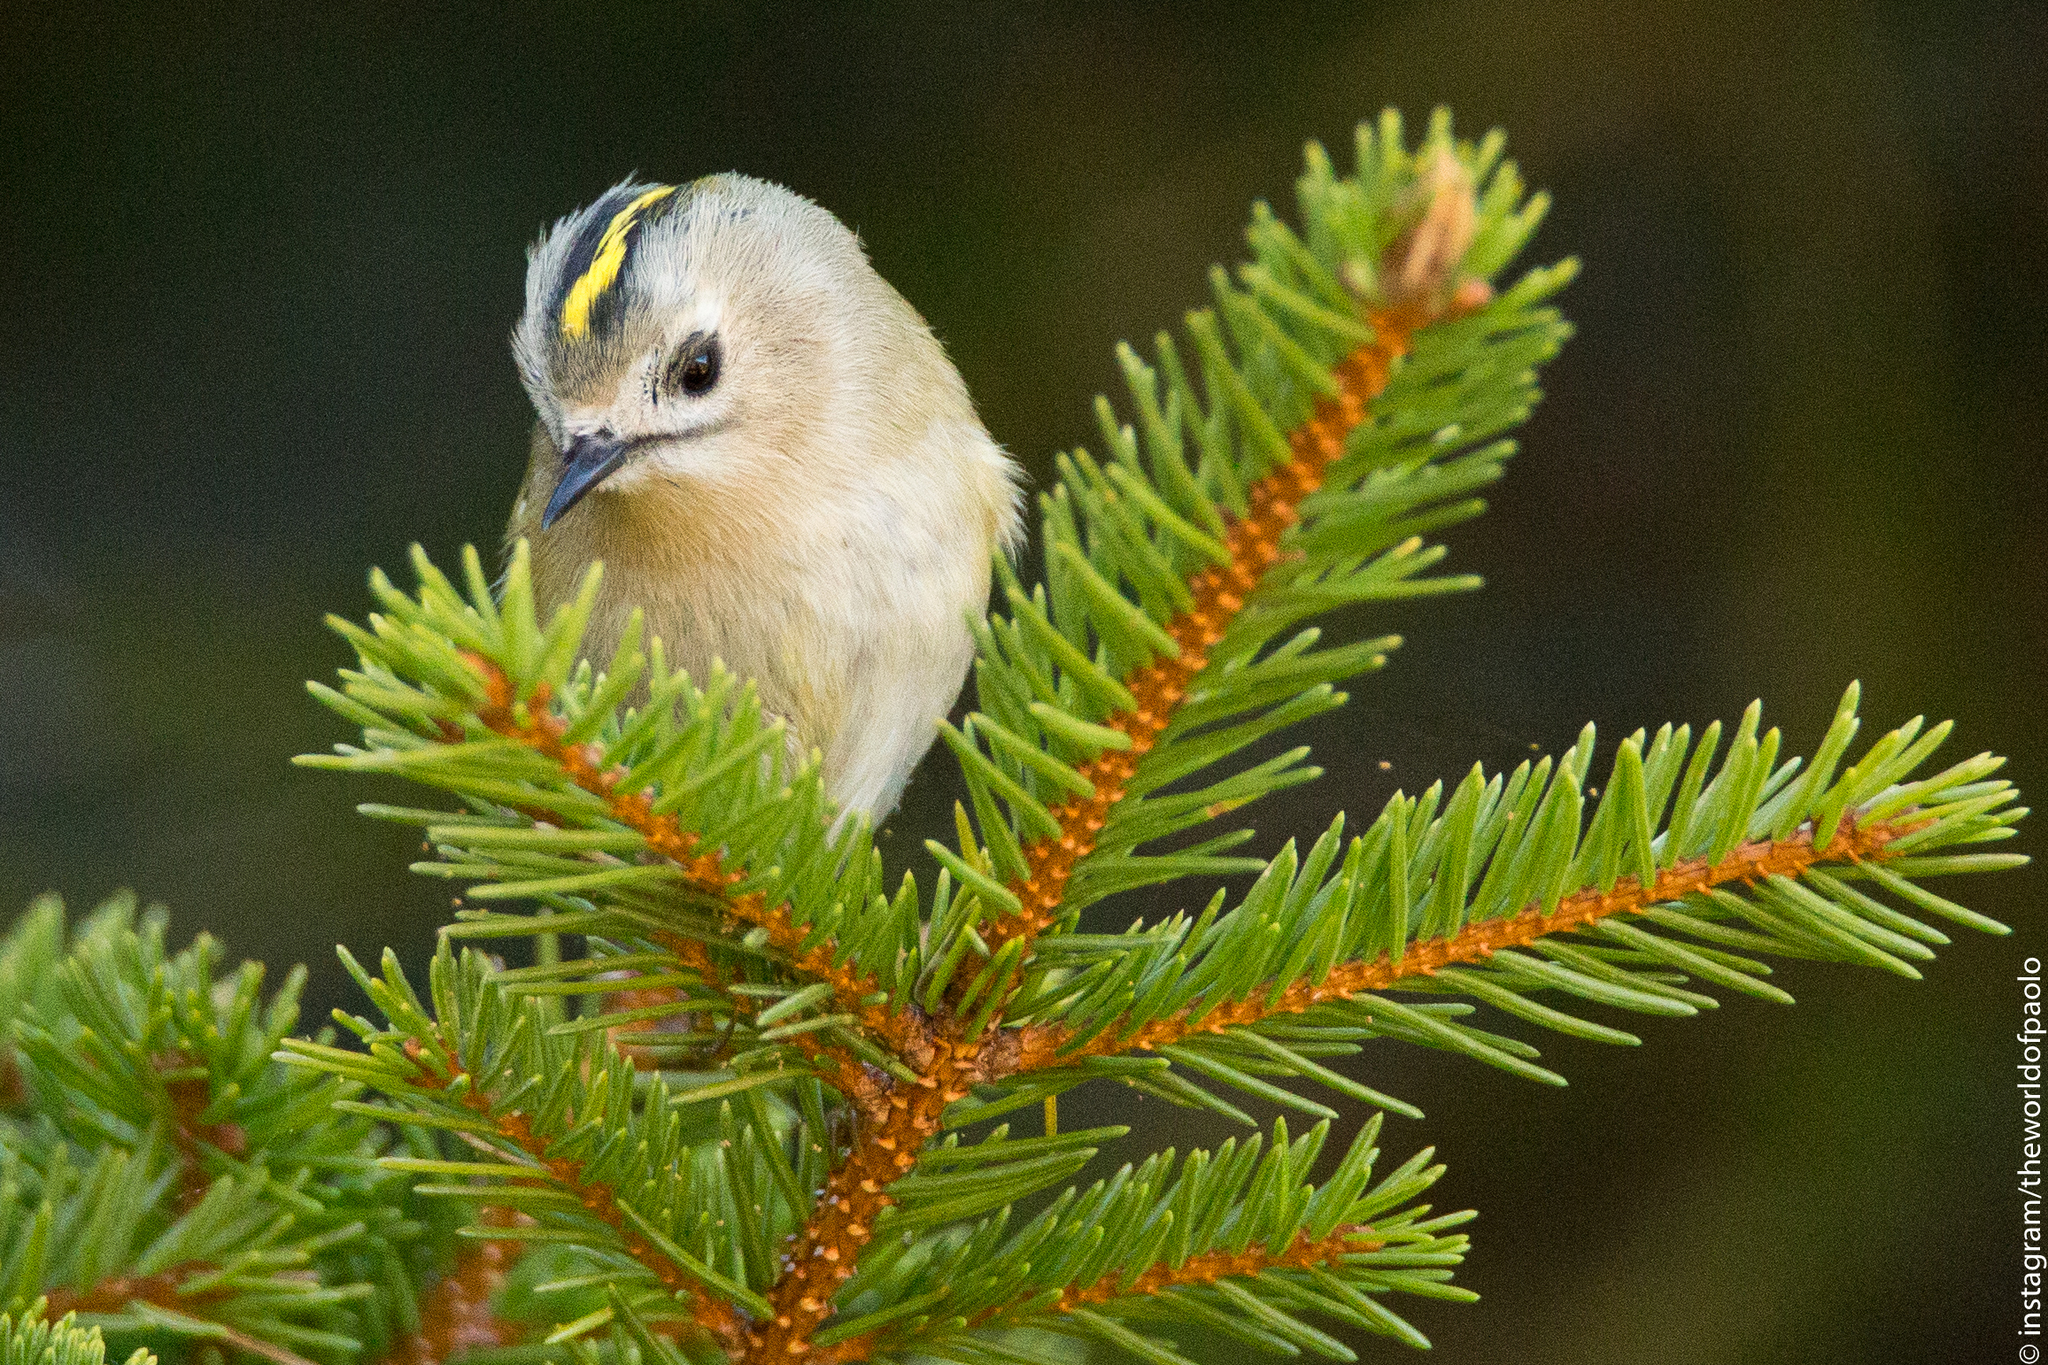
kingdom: Animalia
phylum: Chordata
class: Aves
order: Passeriformes
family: Regulidae
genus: Regulus
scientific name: Regulus regulus
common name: Goldcrest
